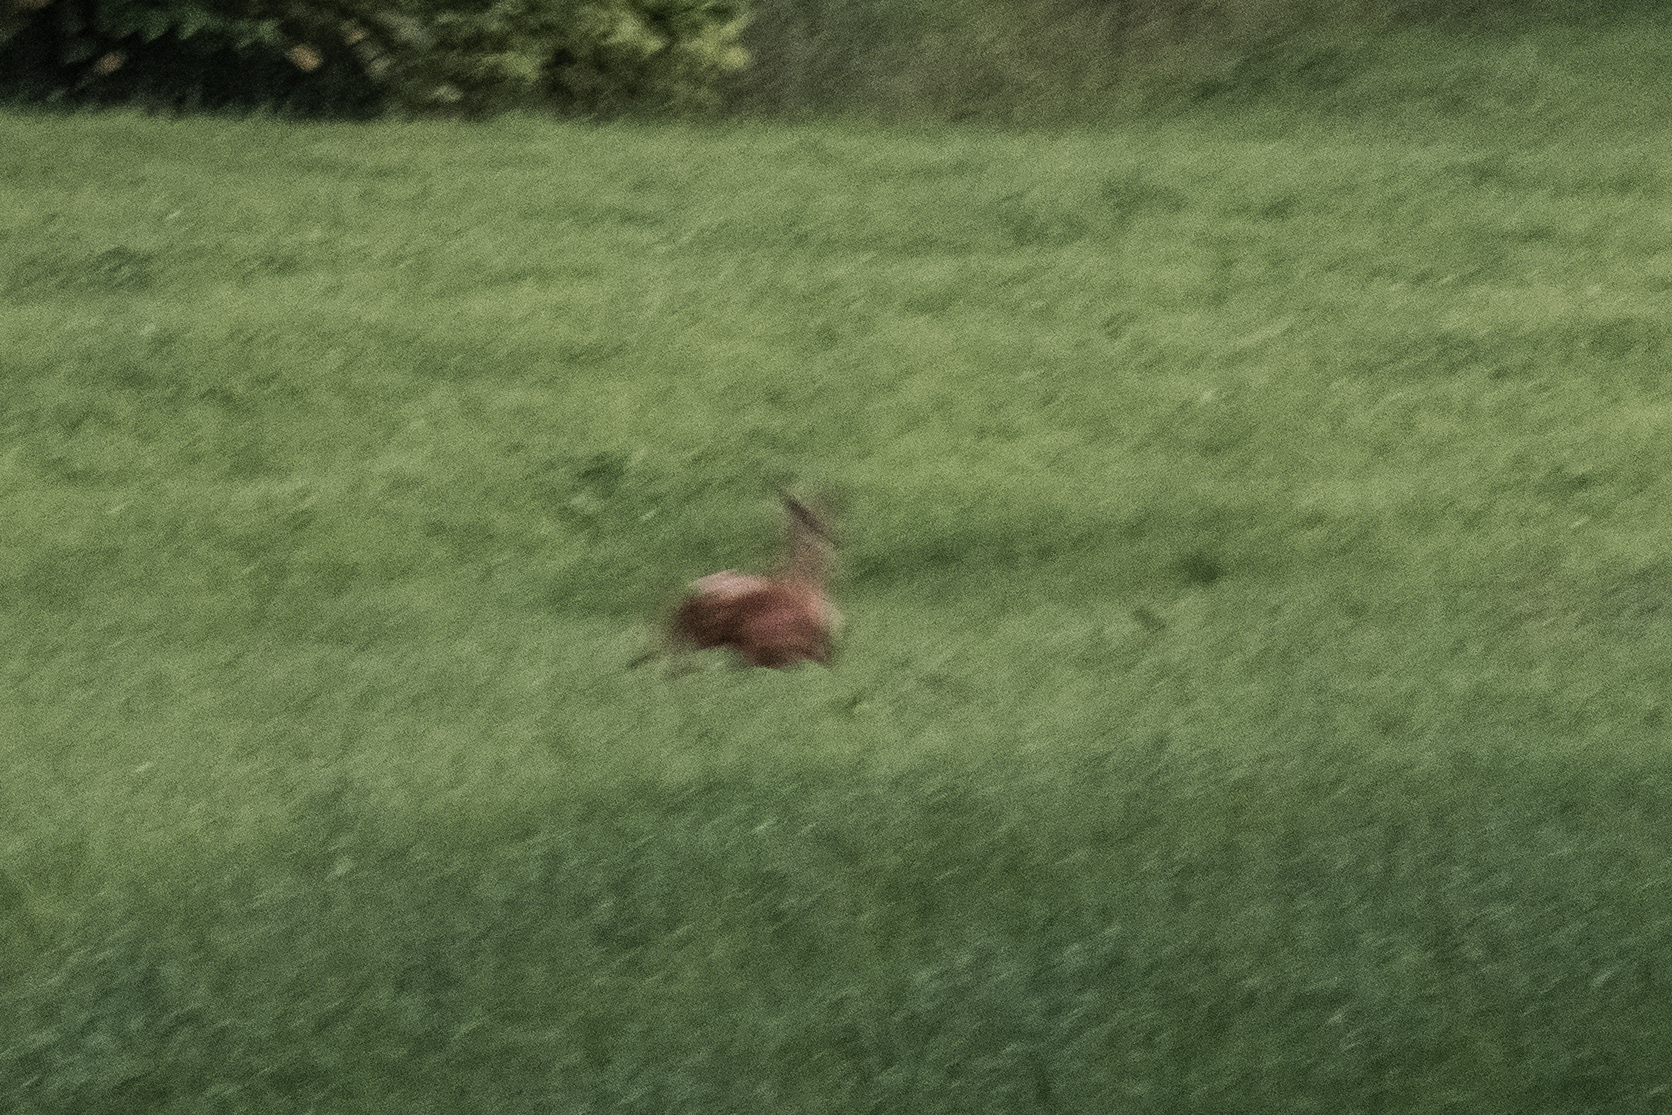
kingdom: Animalia
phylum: Chordata
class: Mammalia
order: Artiodactyla
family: Cervidae
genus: Capreolus
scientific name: Capreolus capreolus
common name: Western roe deer
